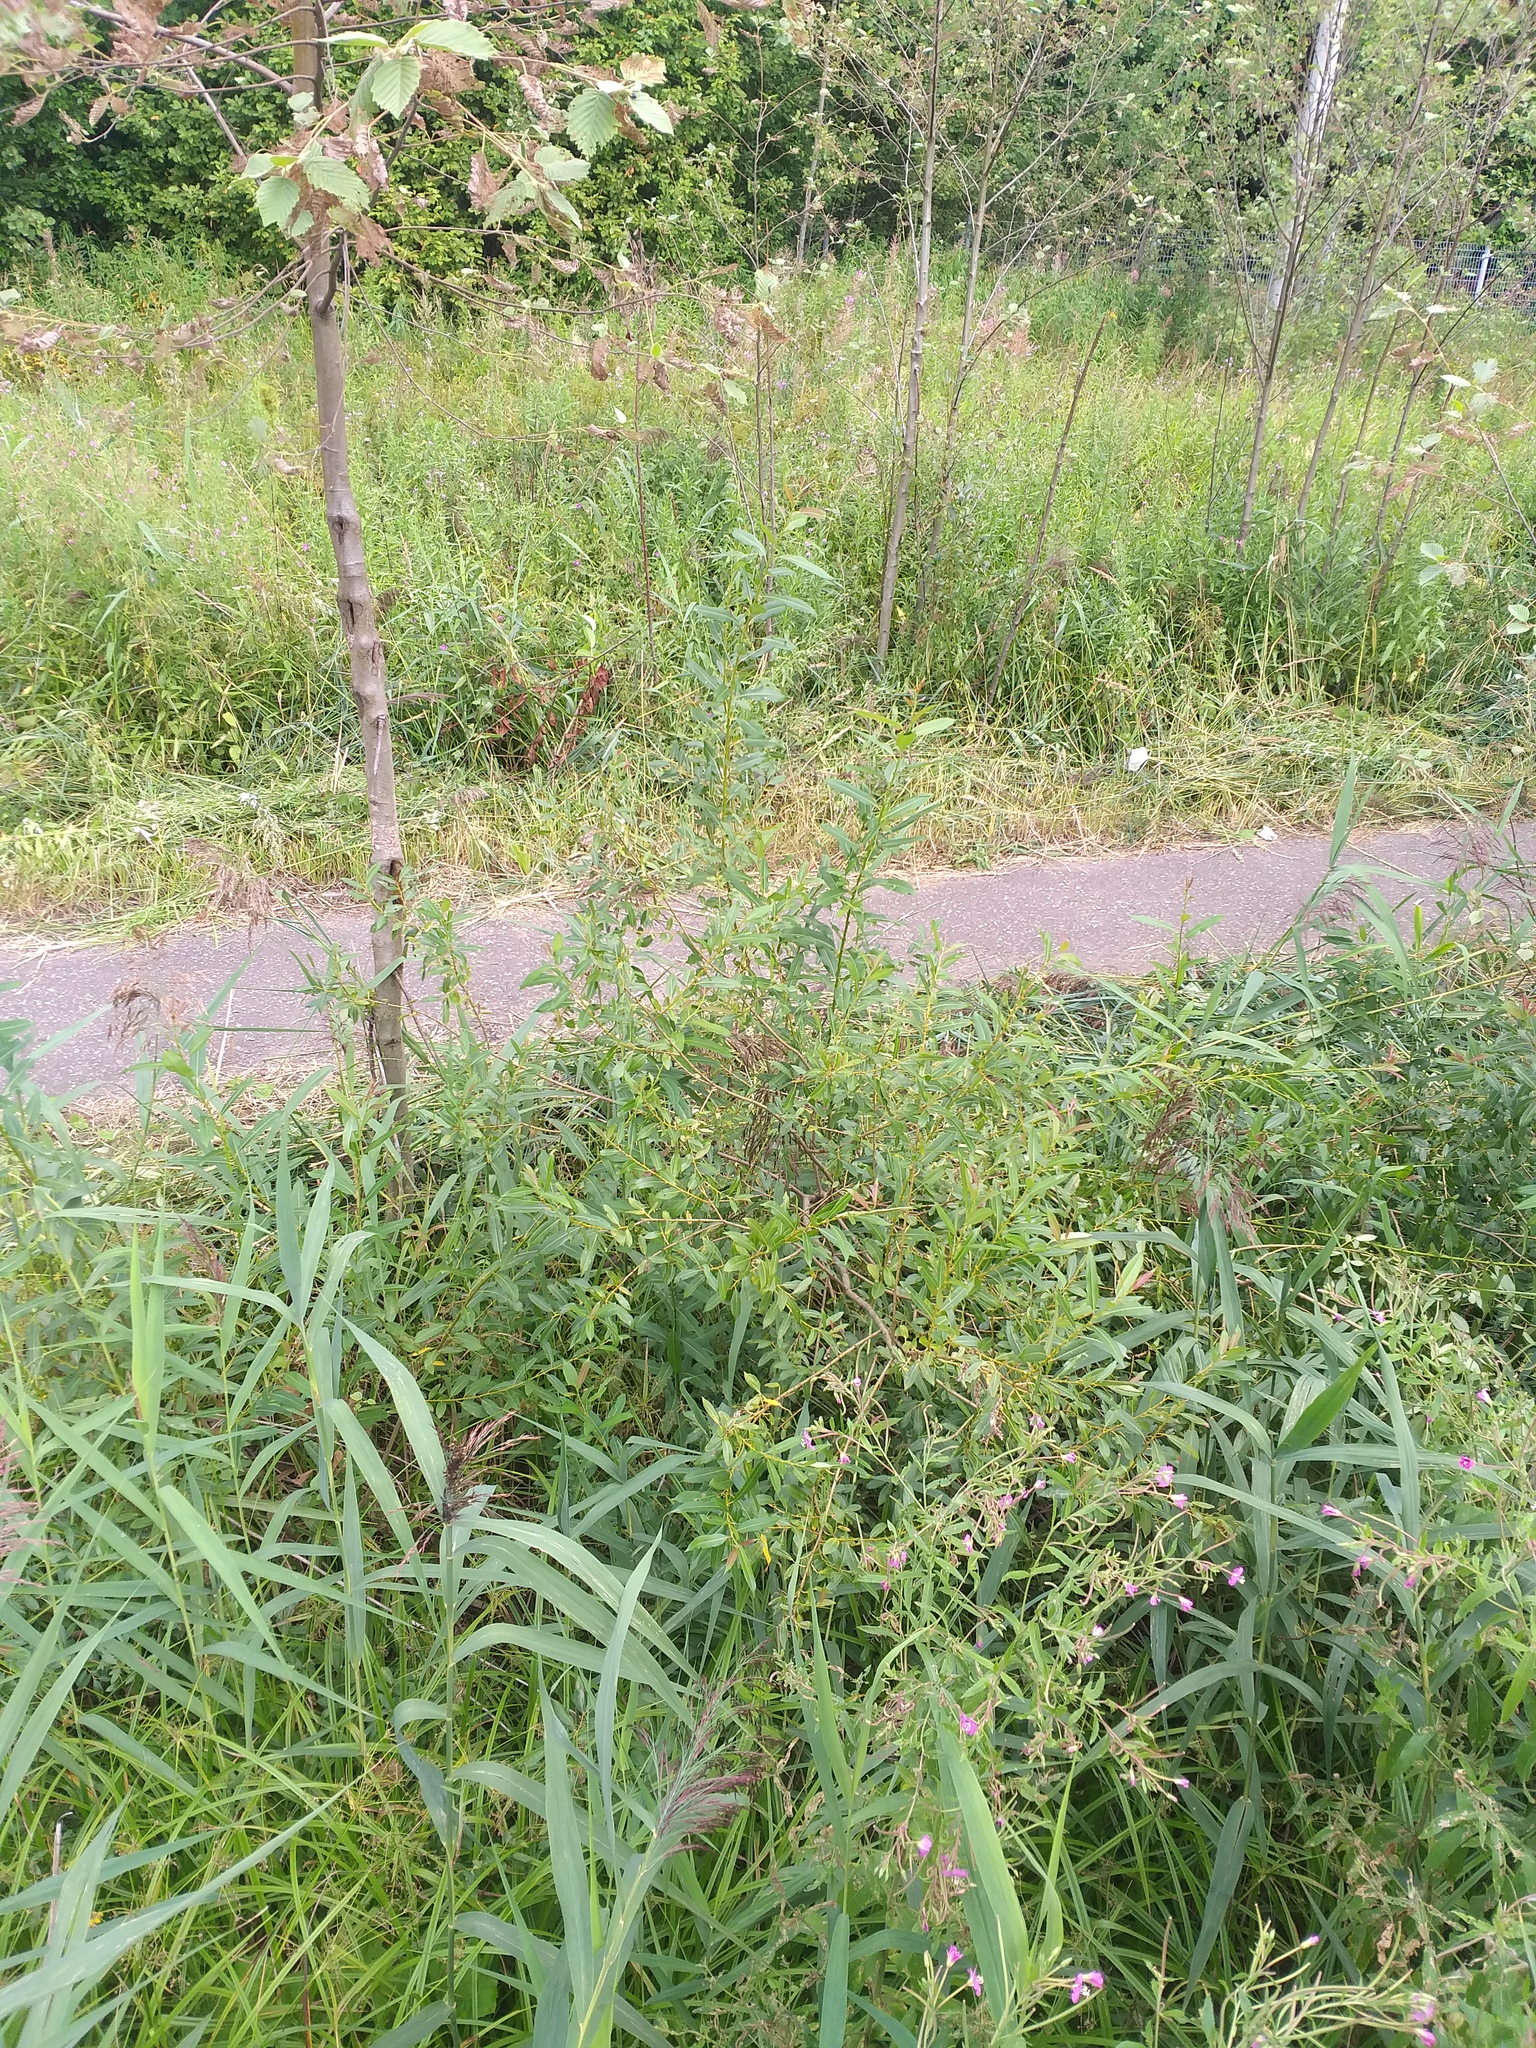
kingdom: Plantae
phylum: Tracheophyta
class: Magnoliopsida
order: Malpighiales
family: Salicaceae
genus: Salix
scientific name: Salix triandra
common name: Almond willow
